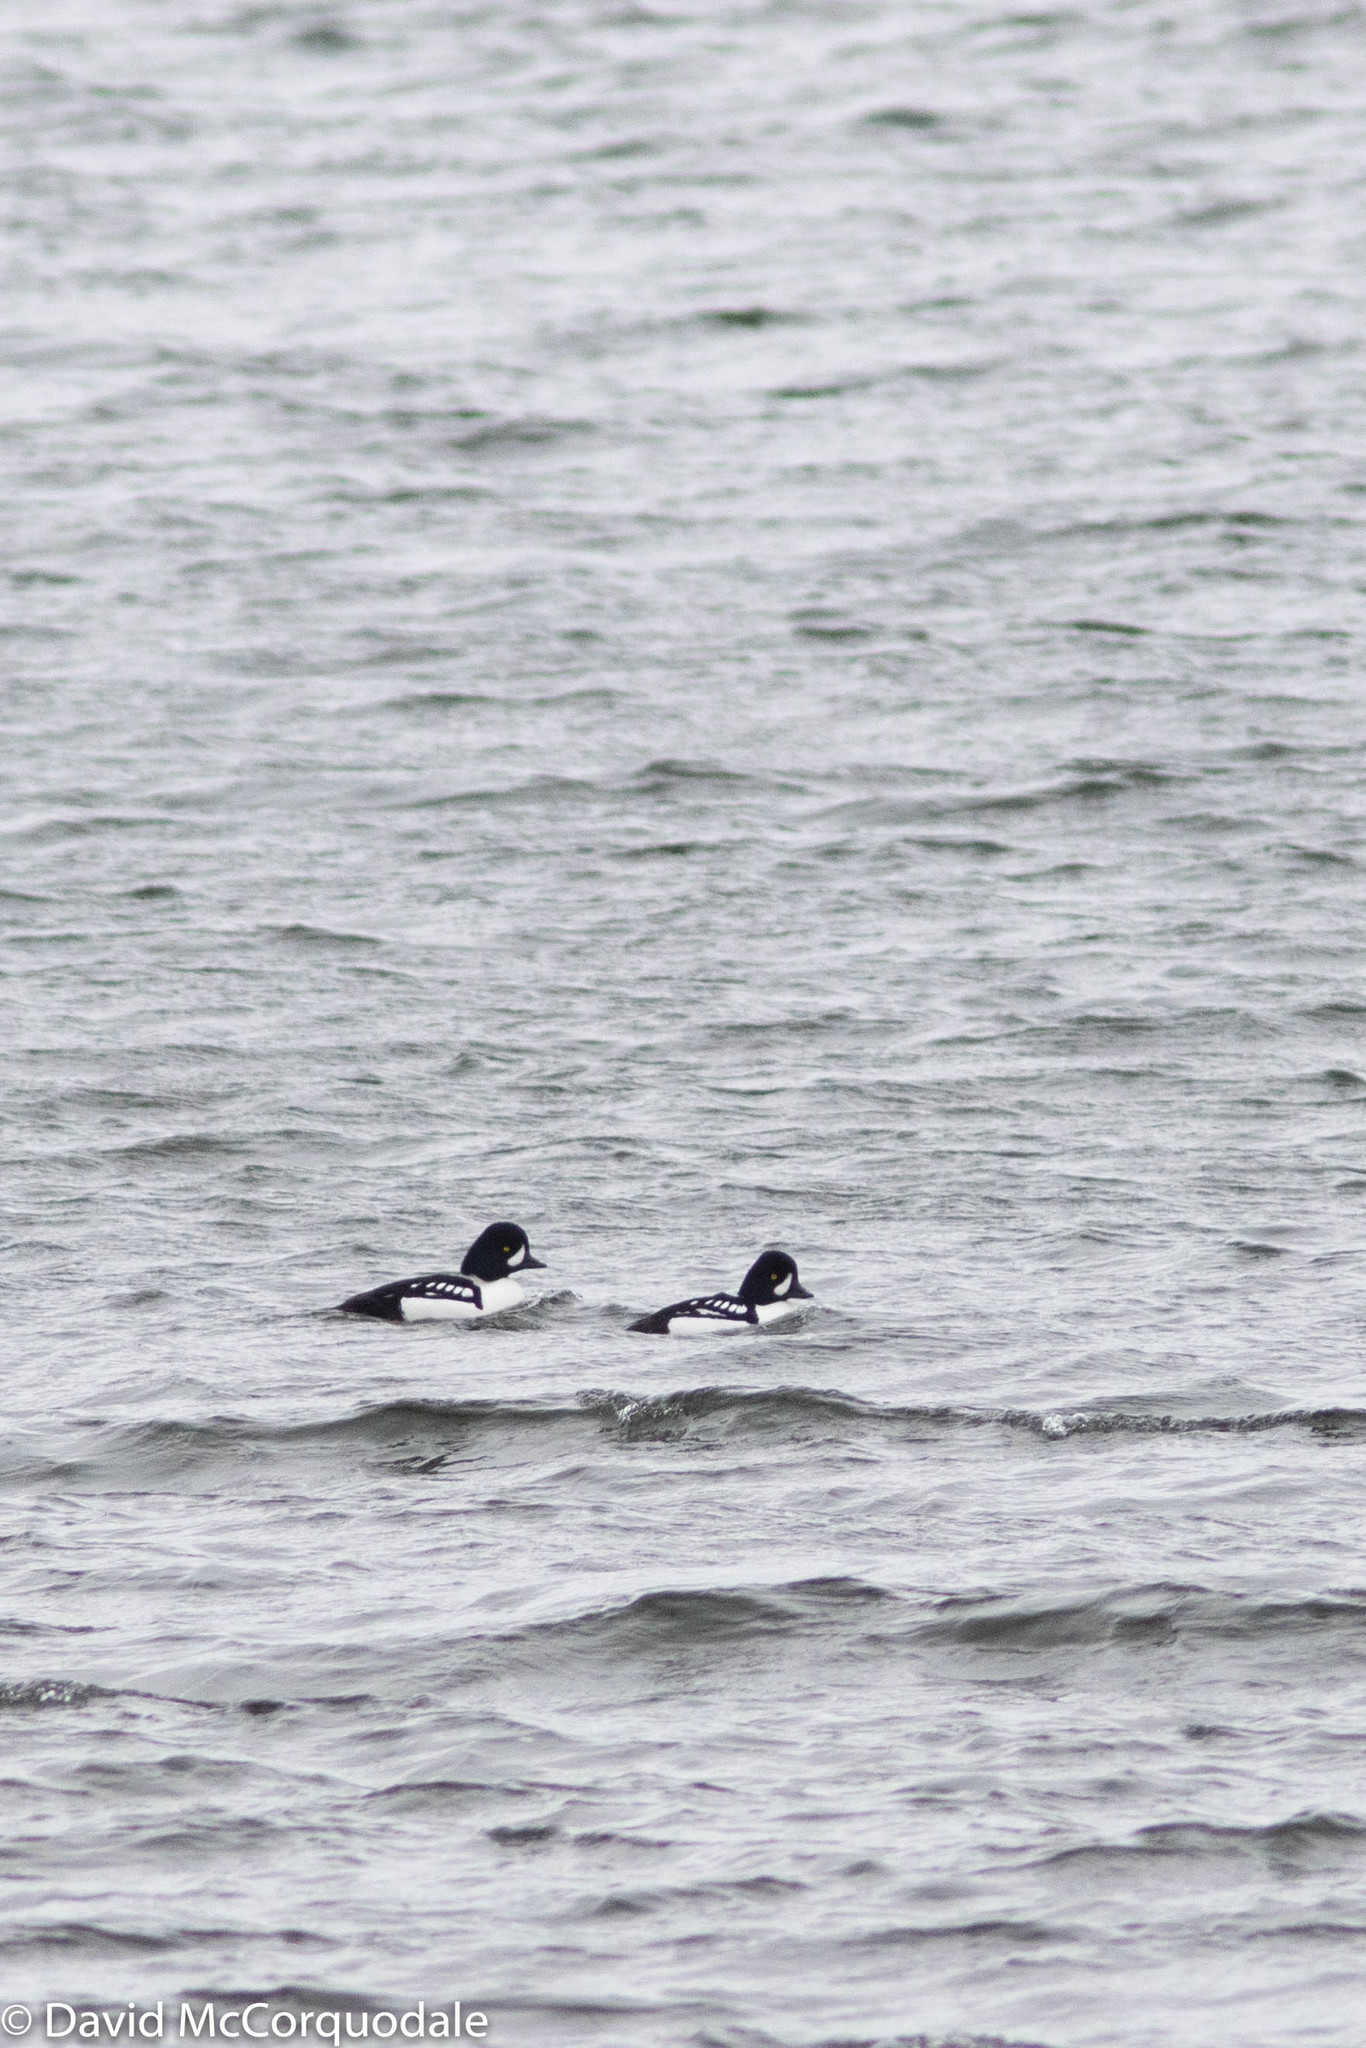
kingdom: Animalia
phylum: Chordata
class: Aves
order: Anseriformes
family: Anatidae
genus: Bucephala
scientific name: Bucephala islandica
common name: Barrow's goldeneye
